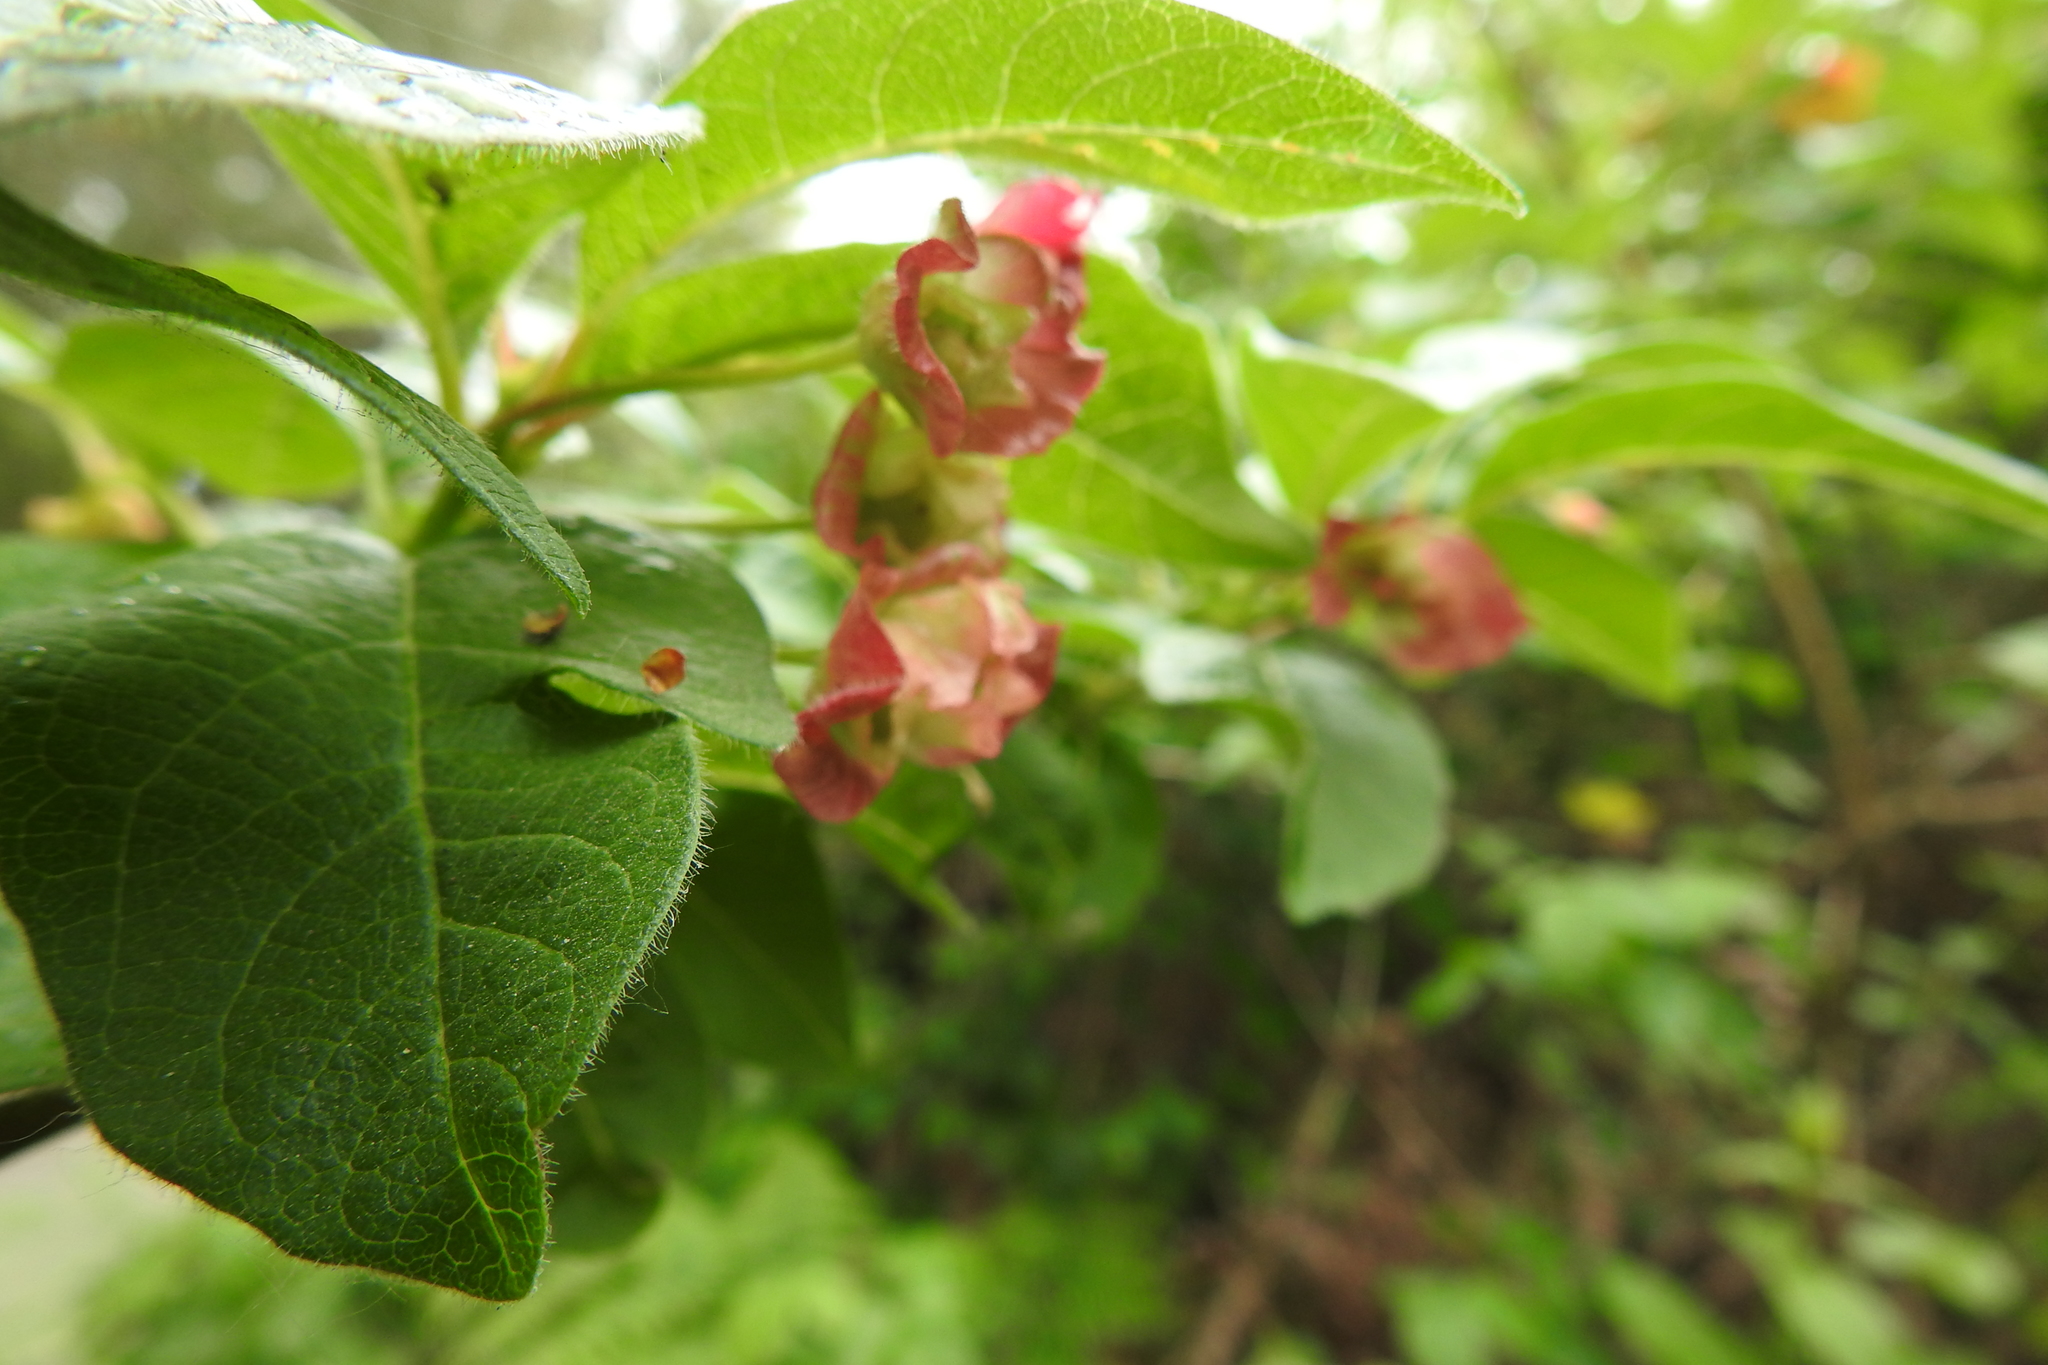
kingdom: Plantae
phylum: Tracheophyta
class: Magnoliopsida
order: Dipsacales
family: Caprifoliaceae
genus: Lonicera
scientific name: Lonicera involucrata
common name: Californian honeysuckle
